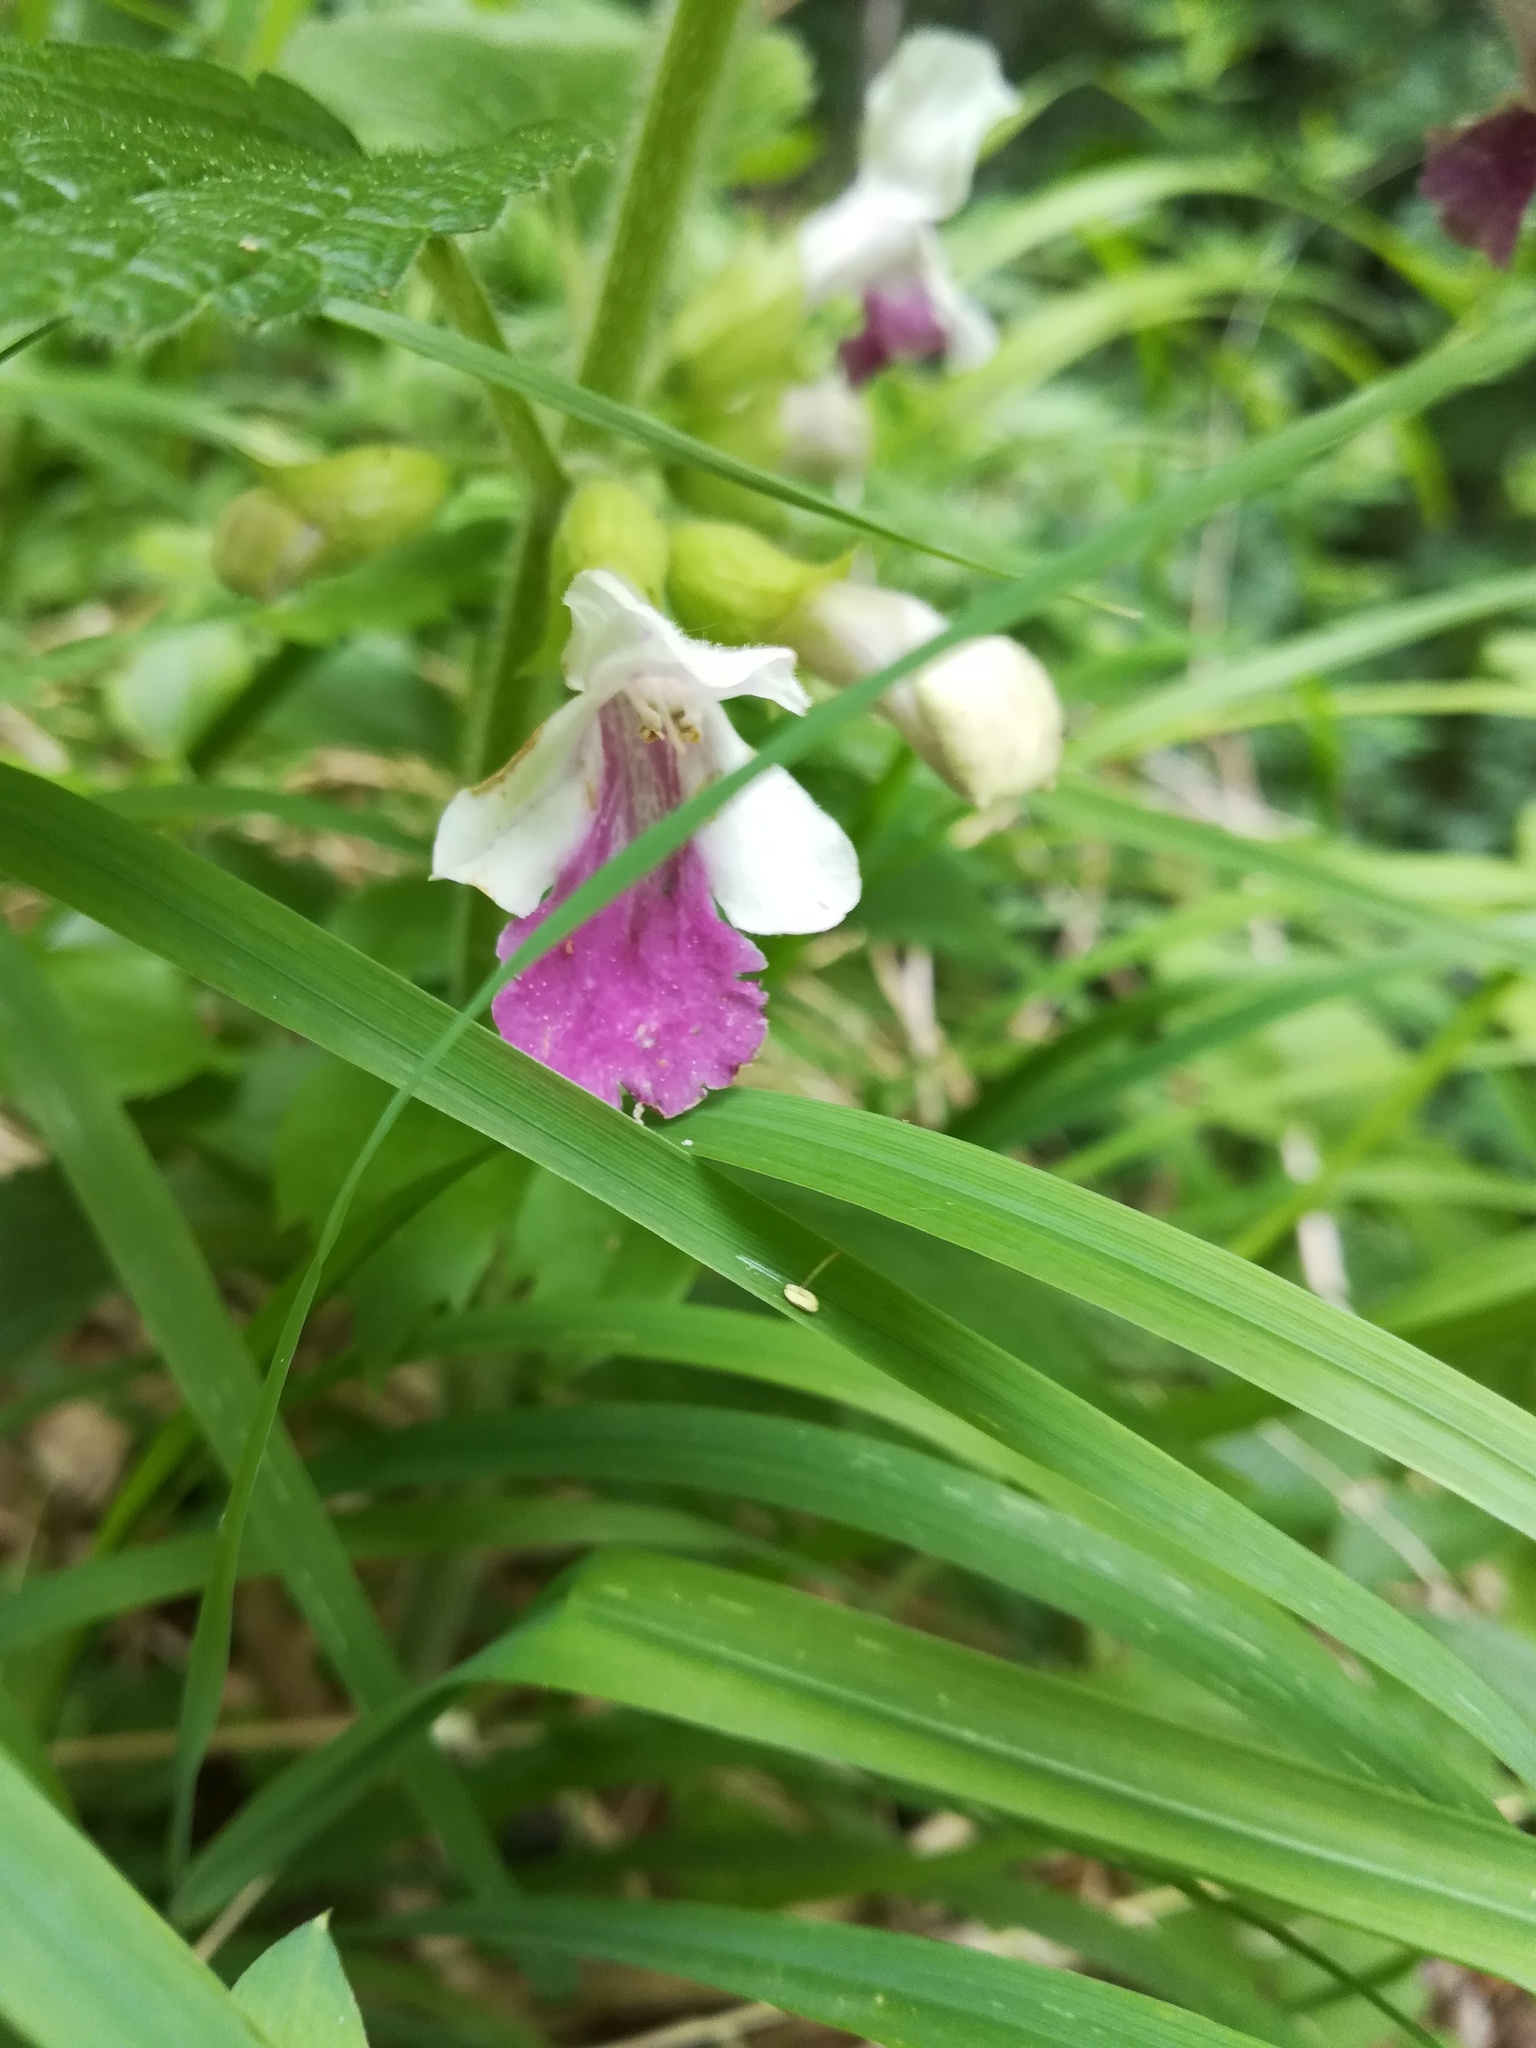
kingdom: Plantae
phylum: Tracheophyta
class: Magnoliopsida
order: Lamiales
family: Lamiaceae
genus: Melittis
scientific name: Melittis melissophyllum
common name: Bastard balm
